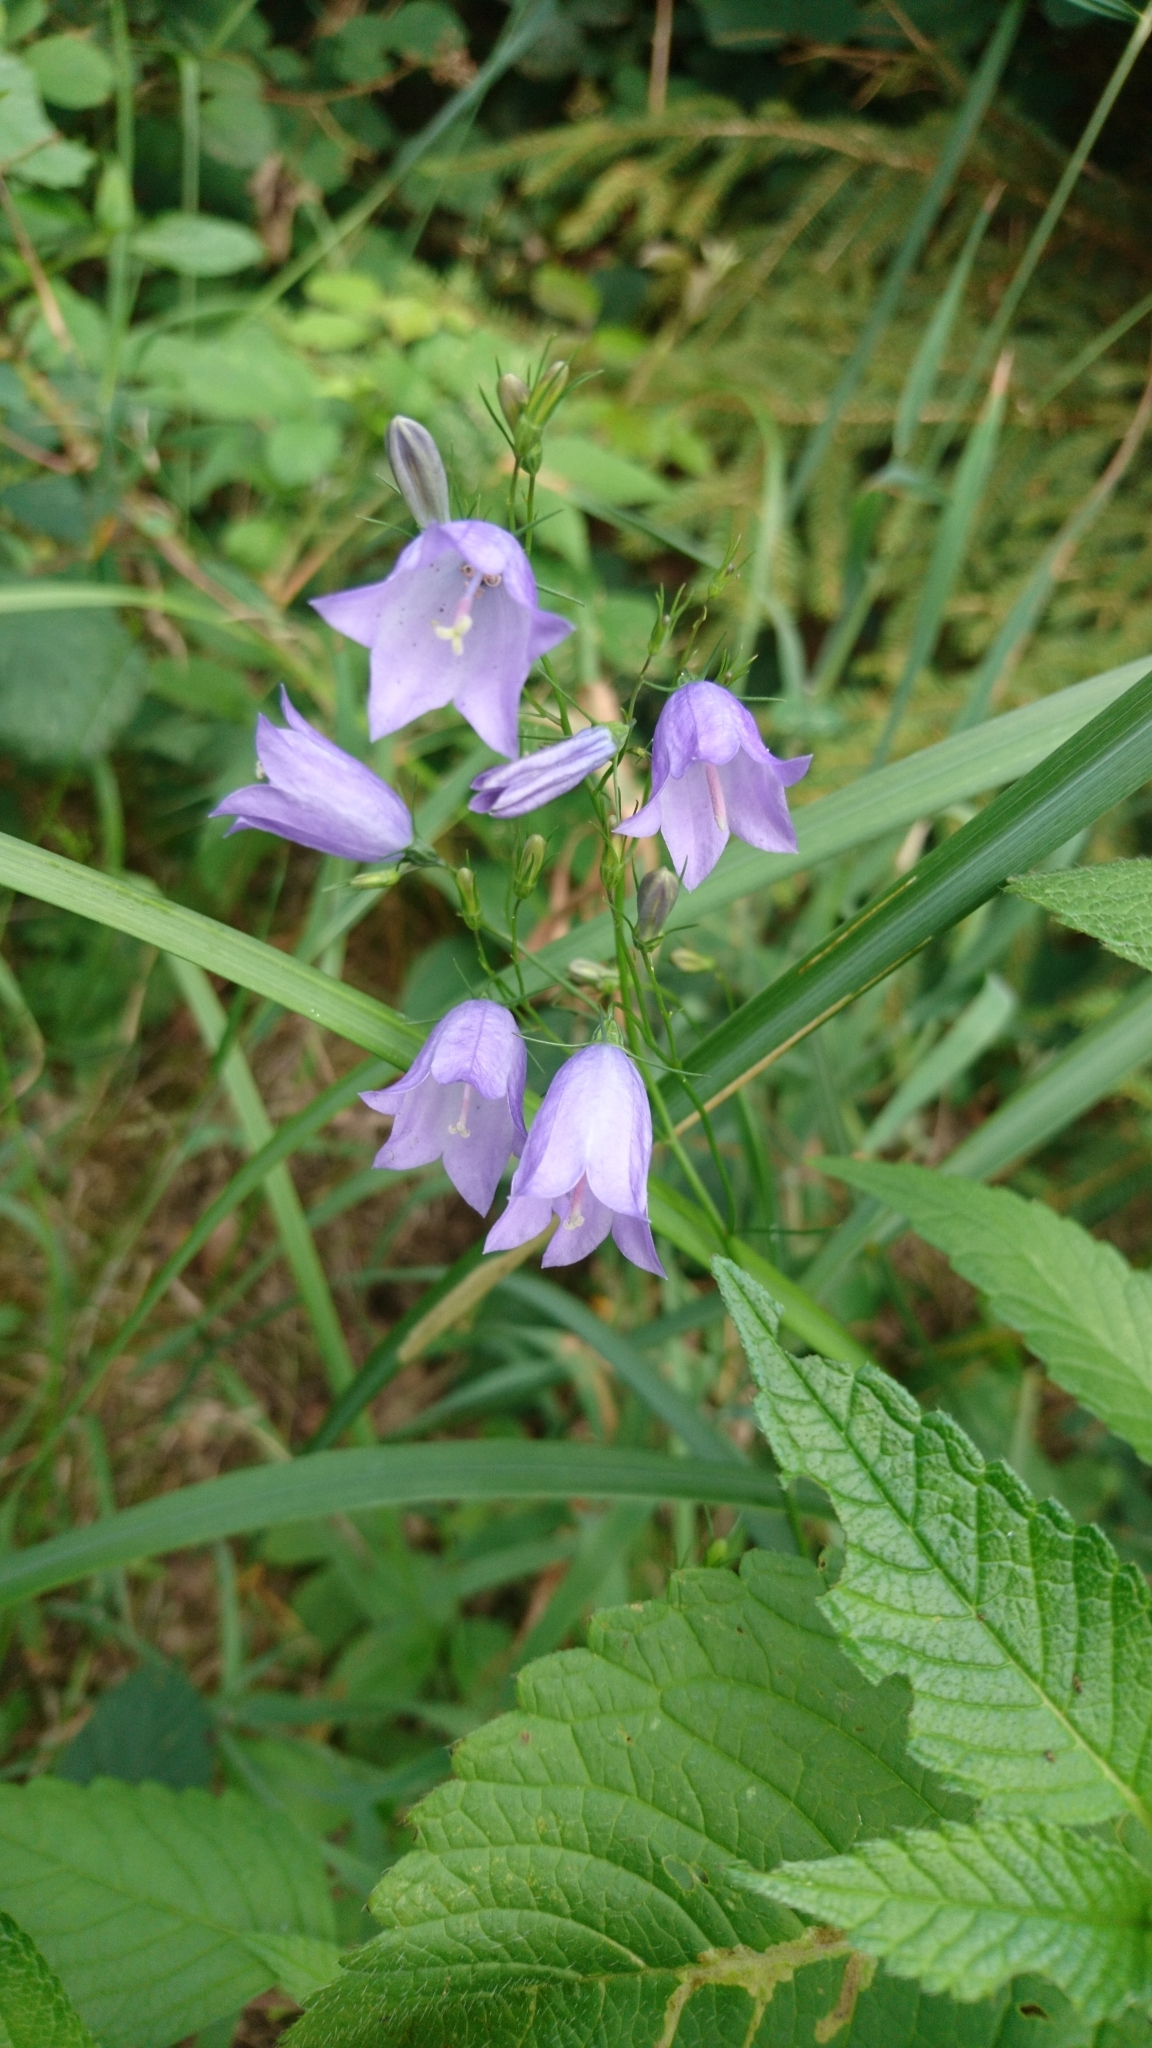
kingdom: Plantae
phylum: Tracheophyta
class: Magnoliopsida
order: Asterales
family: Campanulaceae
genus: Campanula
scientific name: Campanula rotundifolia
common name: Harebell
